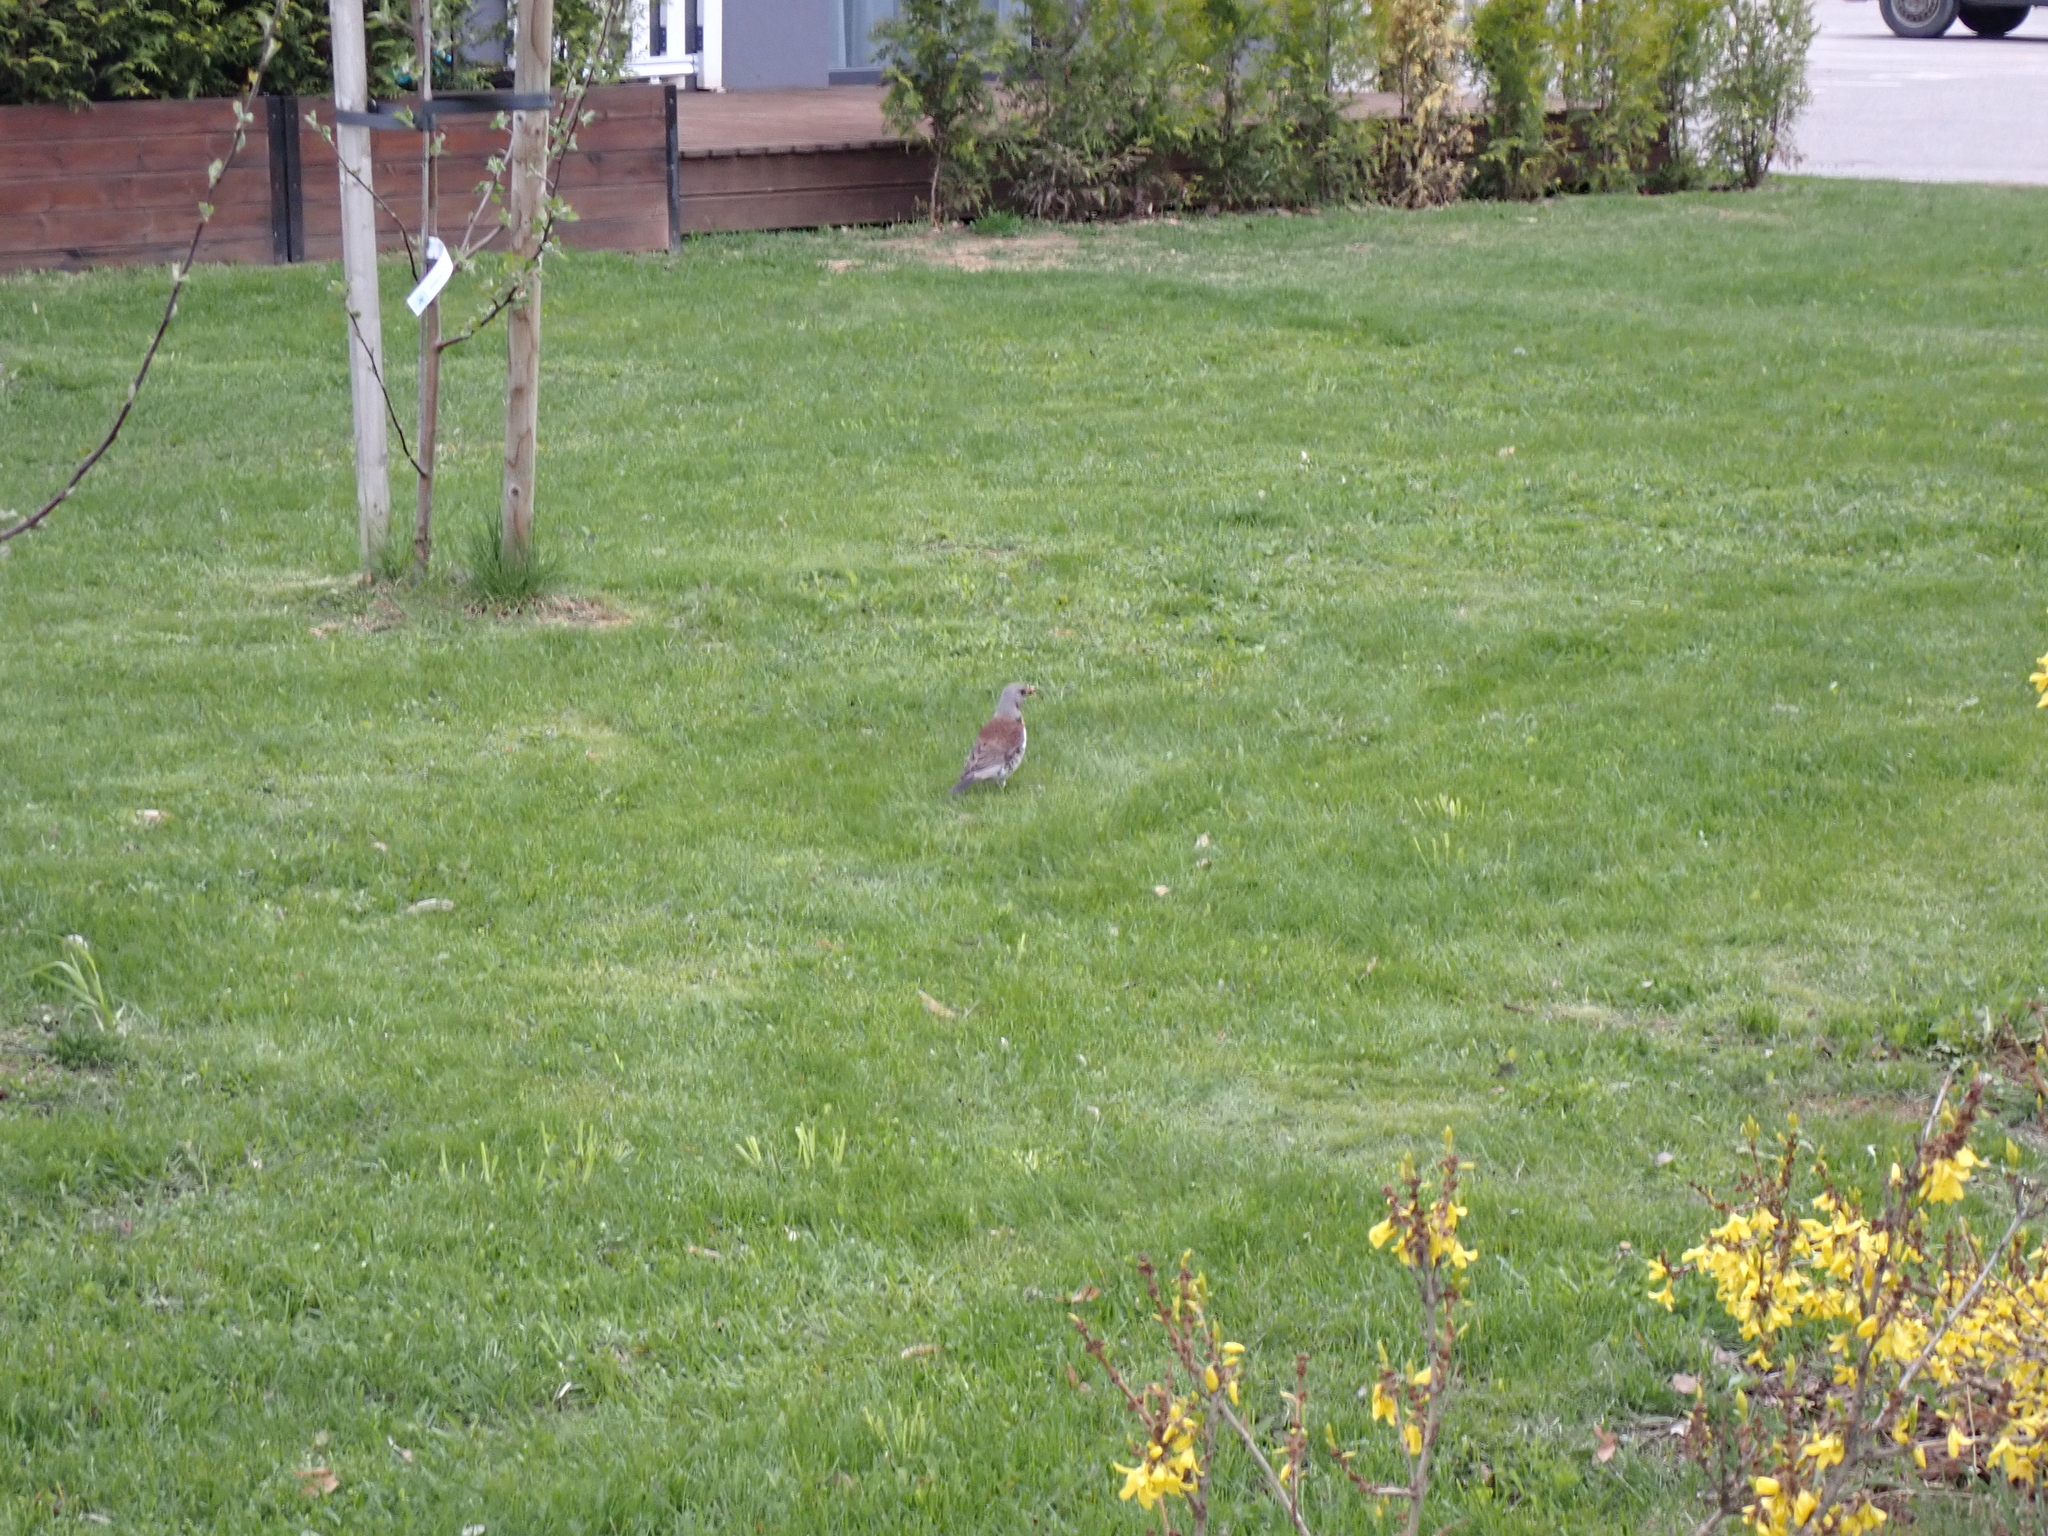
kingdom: Animalia
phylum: Chordata
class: Aves
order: Passeriformes
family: Turdidae
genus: Turdus
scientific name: Turdus pilaris
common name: Fieldfare
